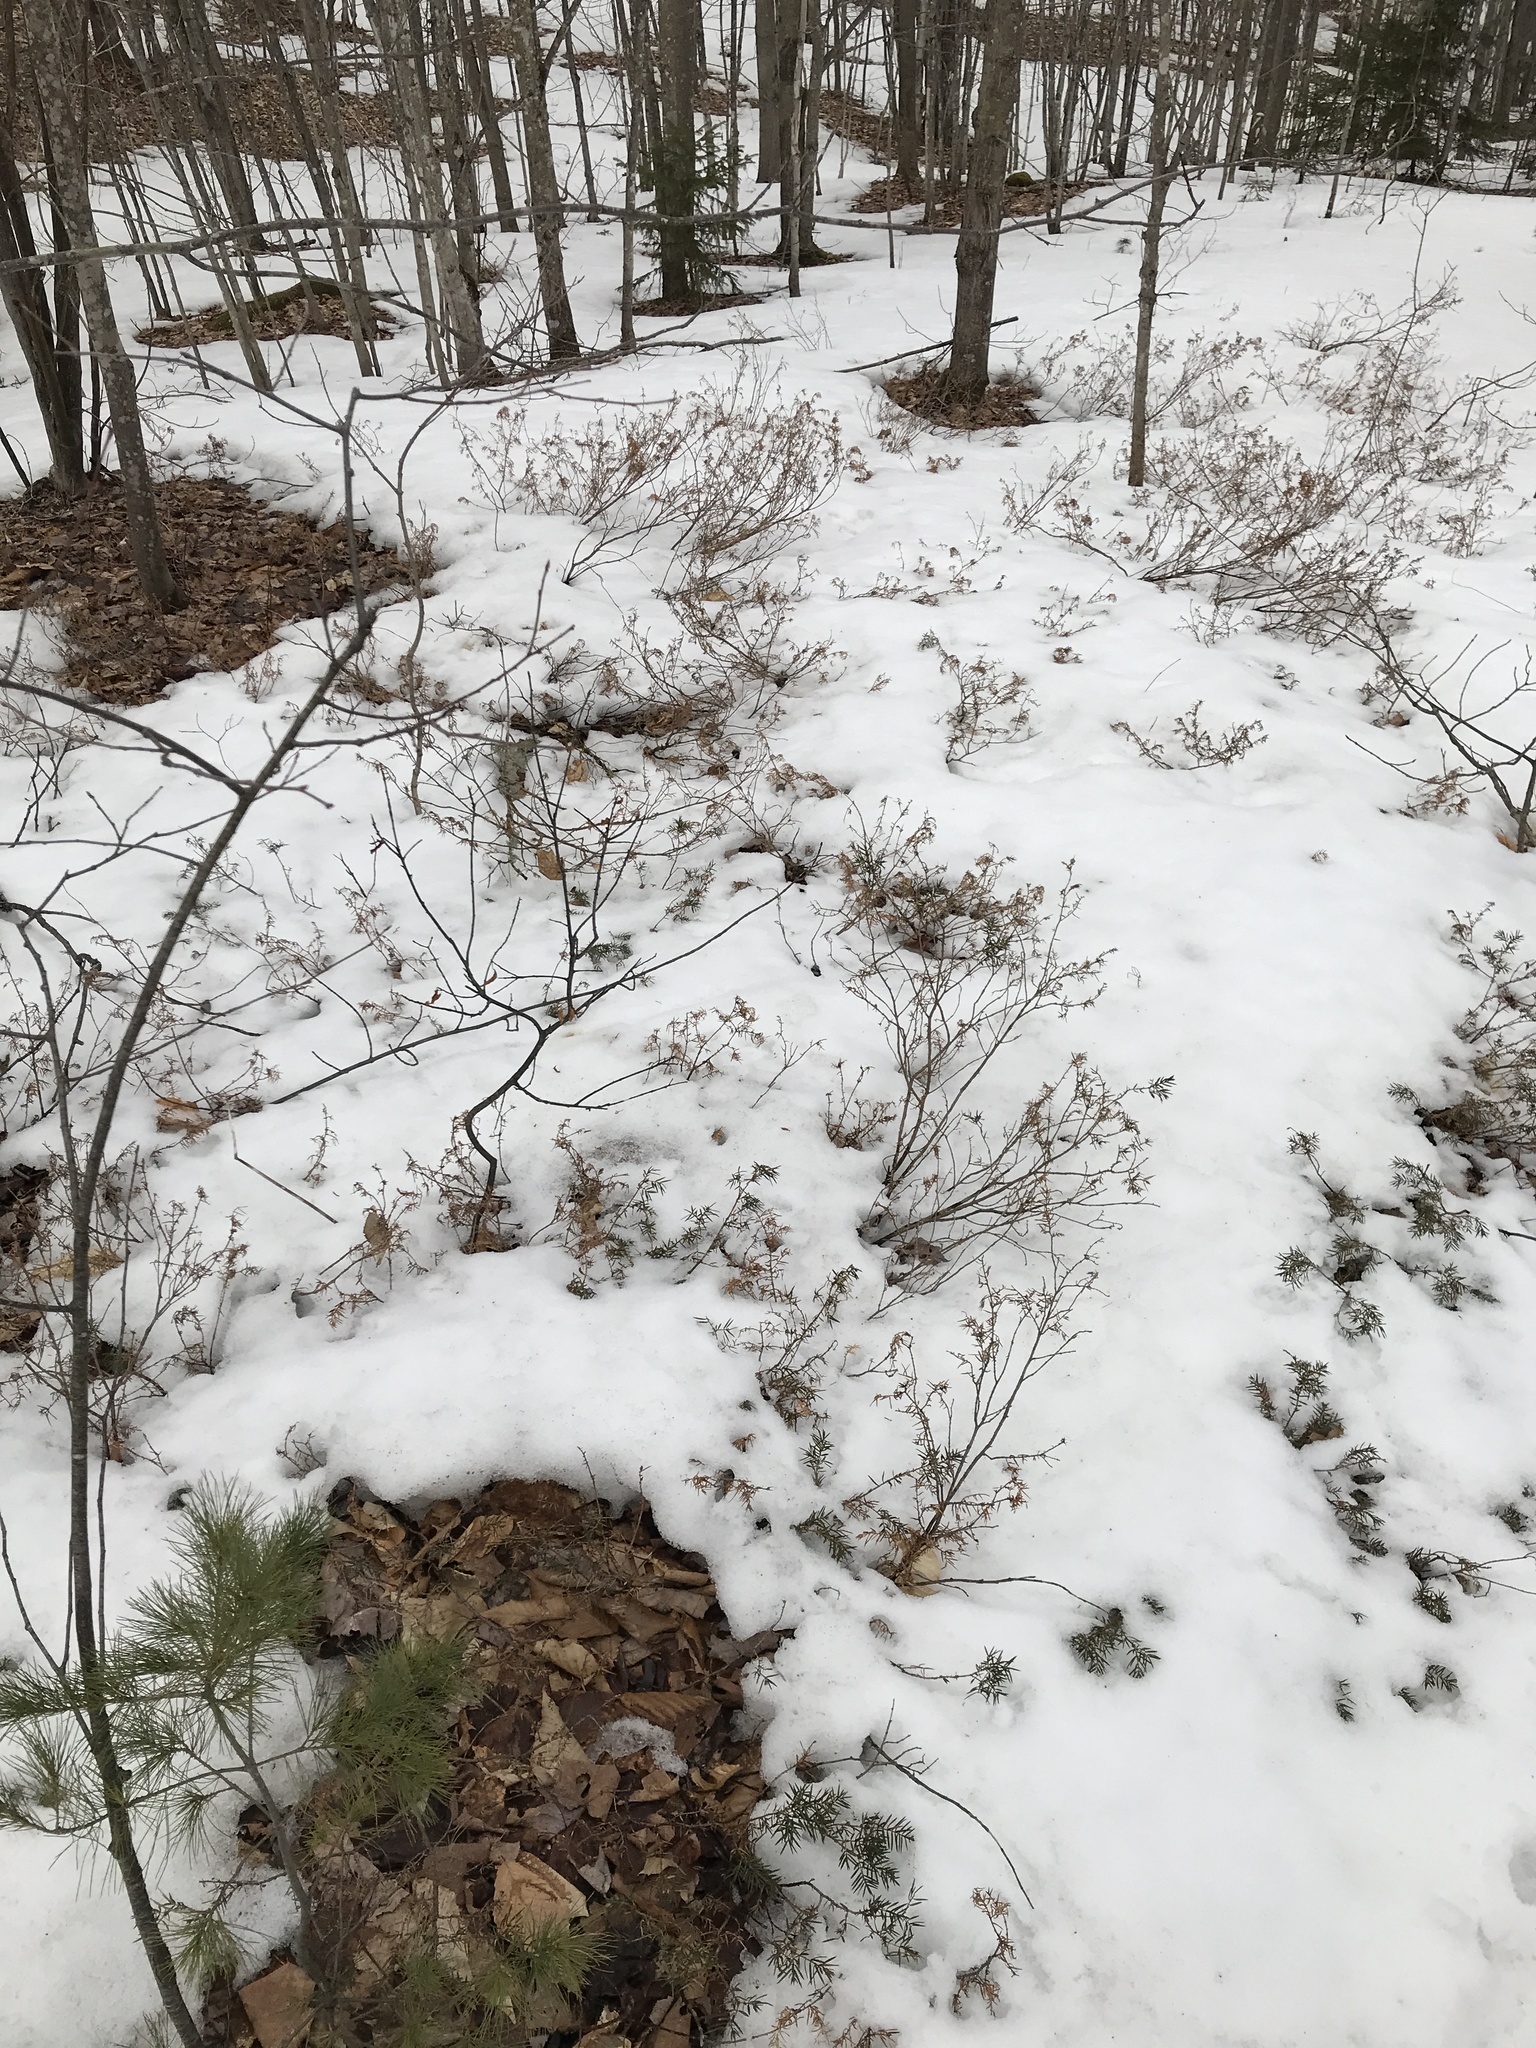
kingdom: Plantae
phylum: Tracheophyta
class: Pinopsida
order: Pinales
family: Cupressaceae
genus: Juniperus
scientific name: Juniperus communis
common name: Common juniper
